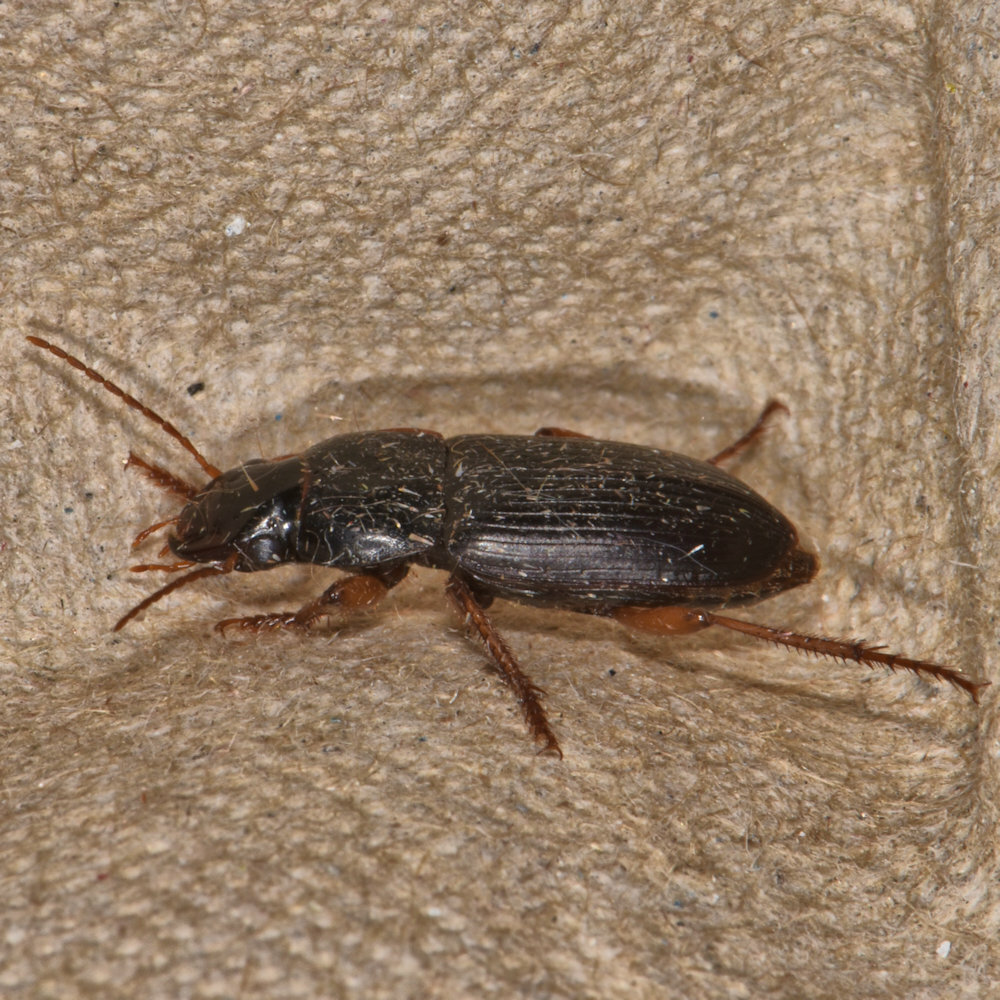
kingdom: Animalia
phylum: Arthropoda
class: Insecta
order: Coleoptera
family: Carabidae
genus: Harpalus
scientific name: Harpalus rubripes
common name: Red-legged harp ground beetle
